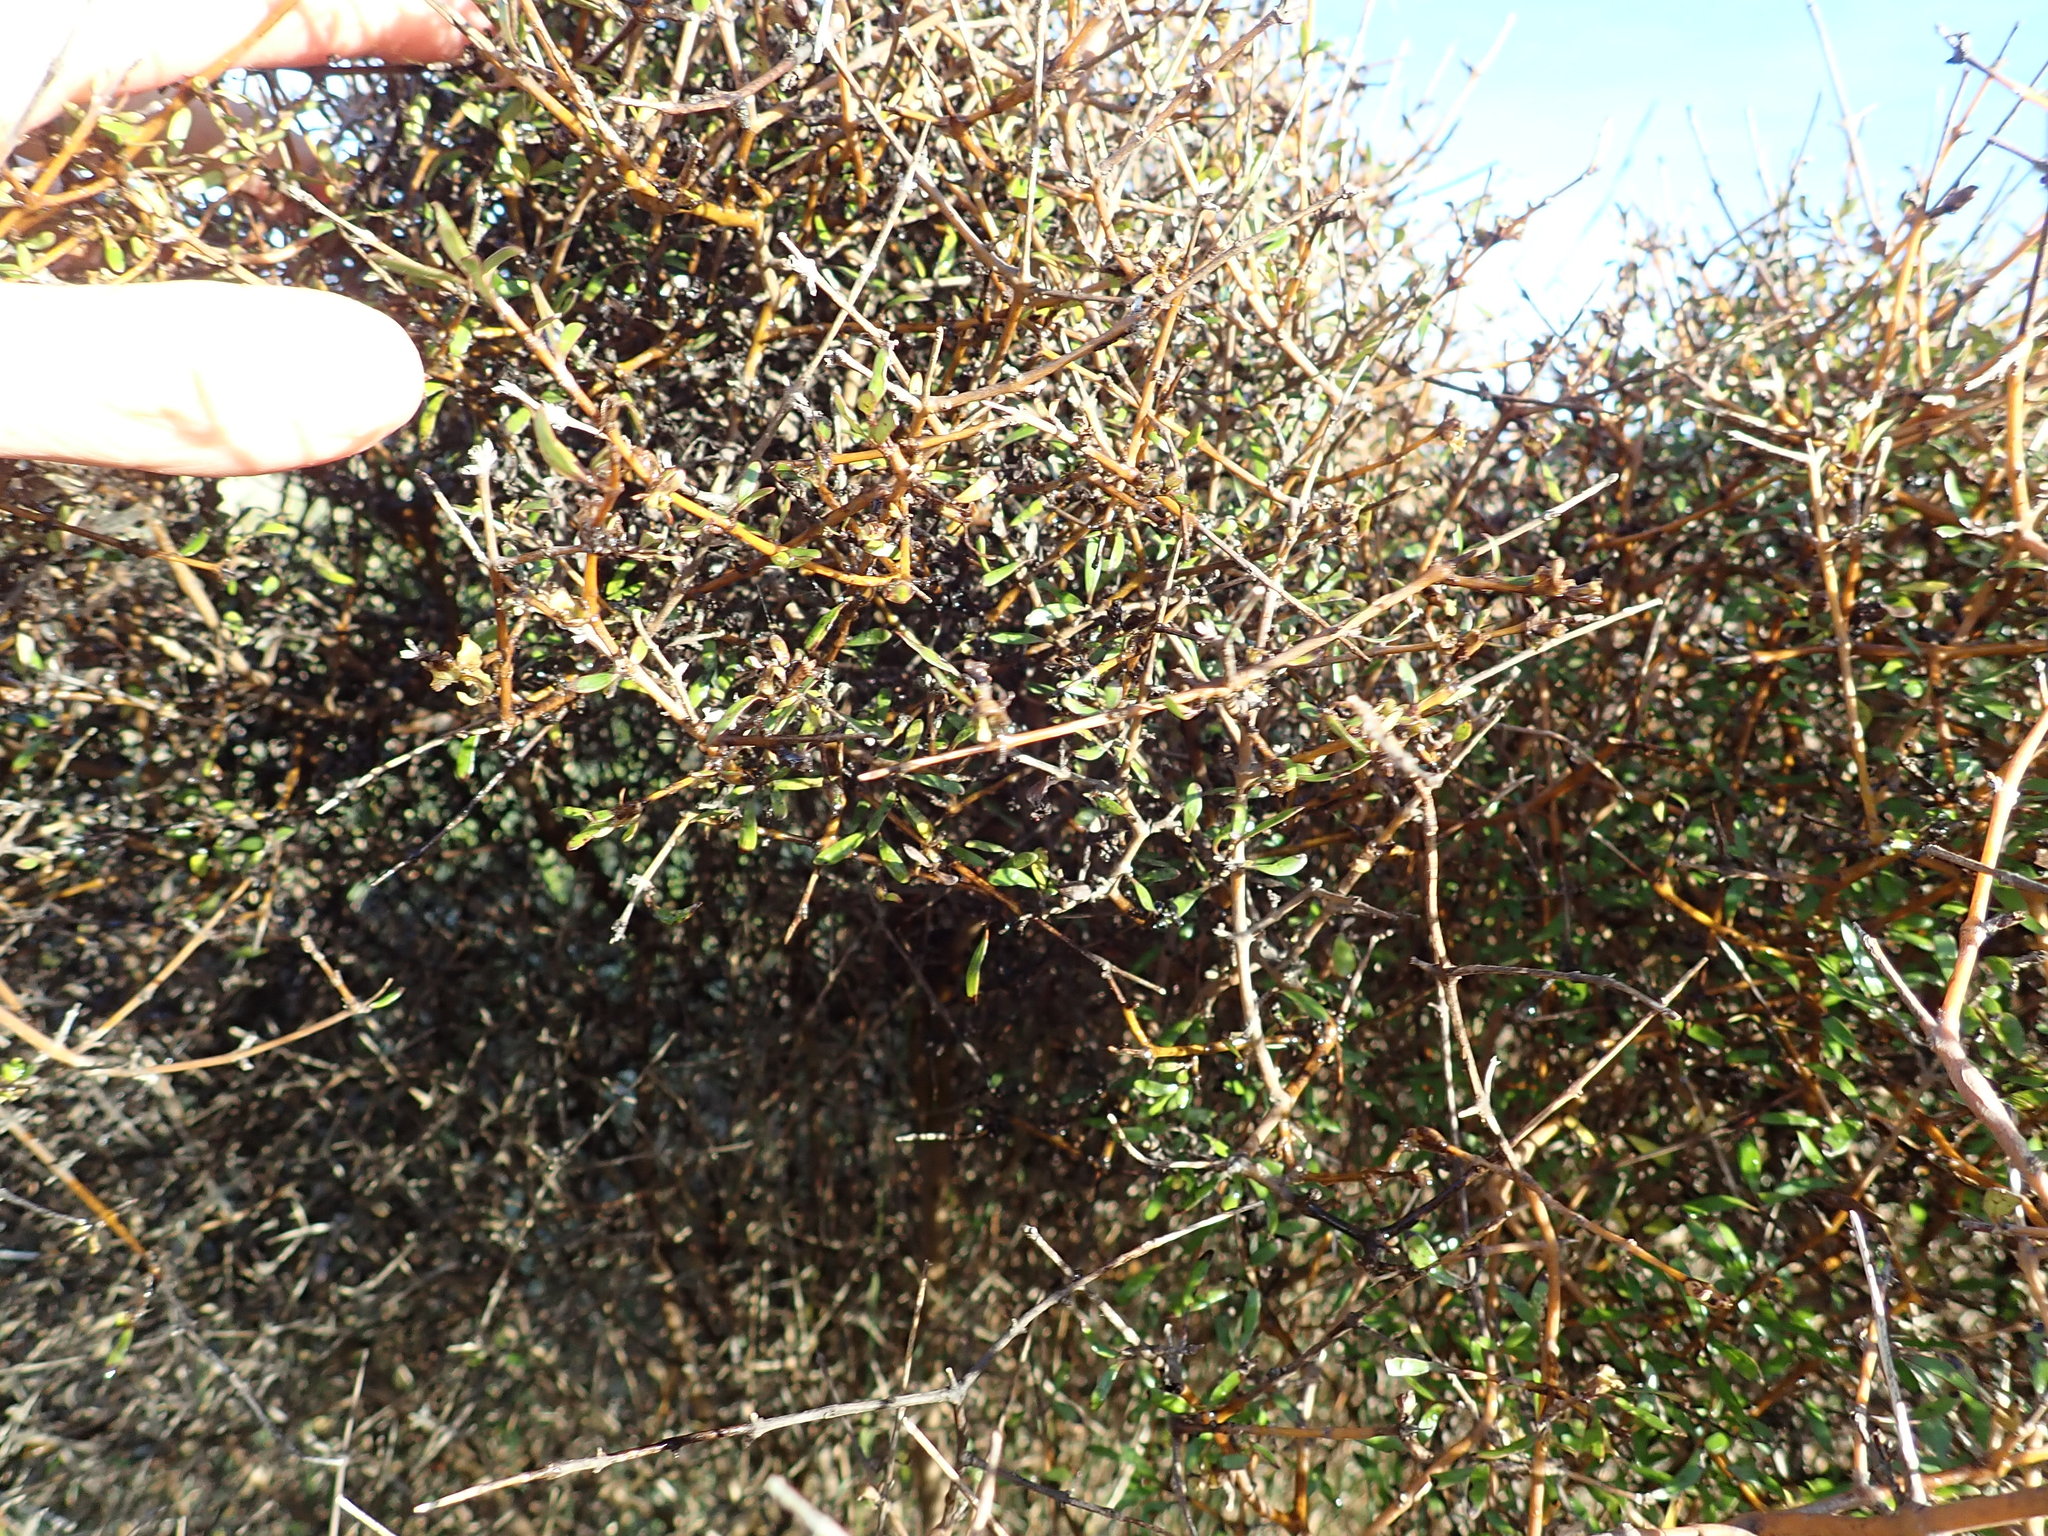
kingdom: Plantae
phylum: Tracheophyta
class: Magnoliopsida
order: Gentianales
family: Rubiaceae
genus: Coprosma
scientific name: Coprosma propinqua
